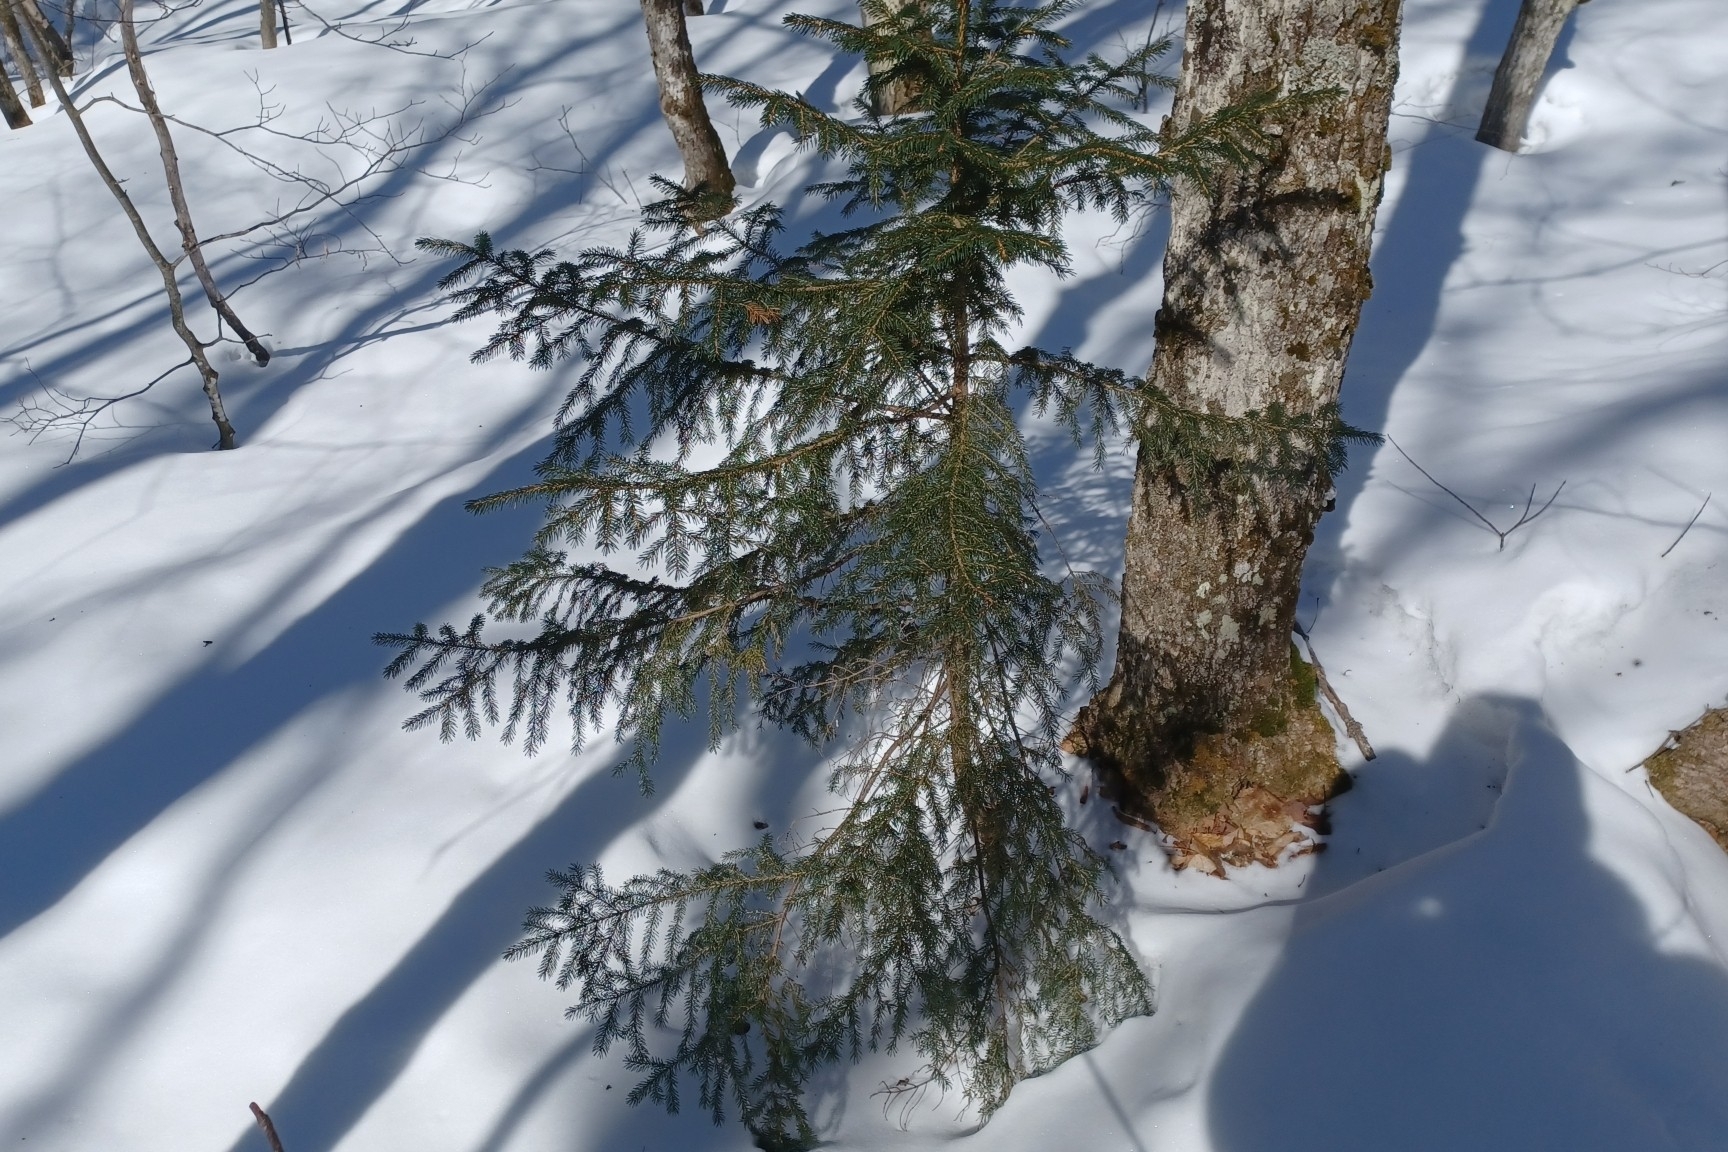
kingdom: Plantae
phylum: Tracheophyta
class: Pinopsida
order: Pinales
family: Pinaceae
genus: Picea
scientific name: Picea rubens
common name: Red spruce
